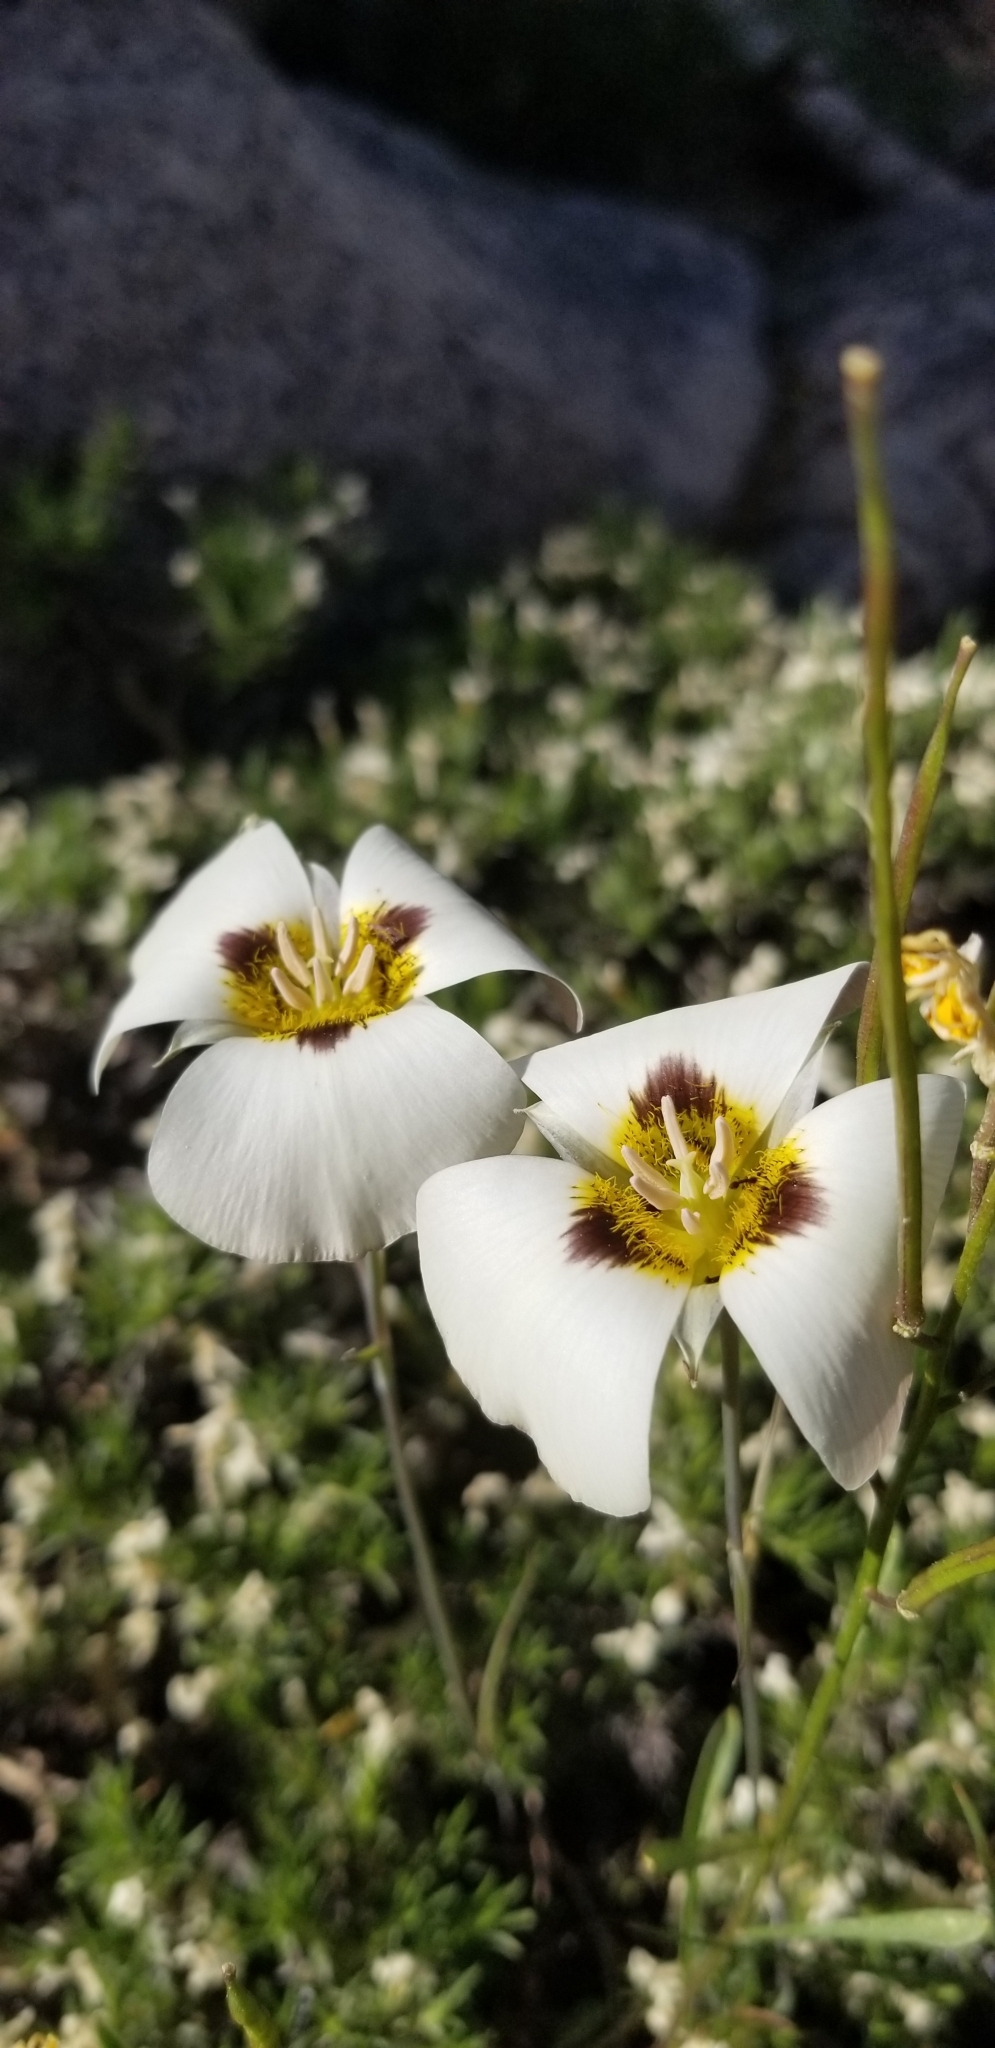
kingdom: Plantae
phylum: Tracheophyta
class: Liliopsida
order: Liliales
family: Liliaceae
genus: Calochortus
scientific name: Calochortus leichtlinii
